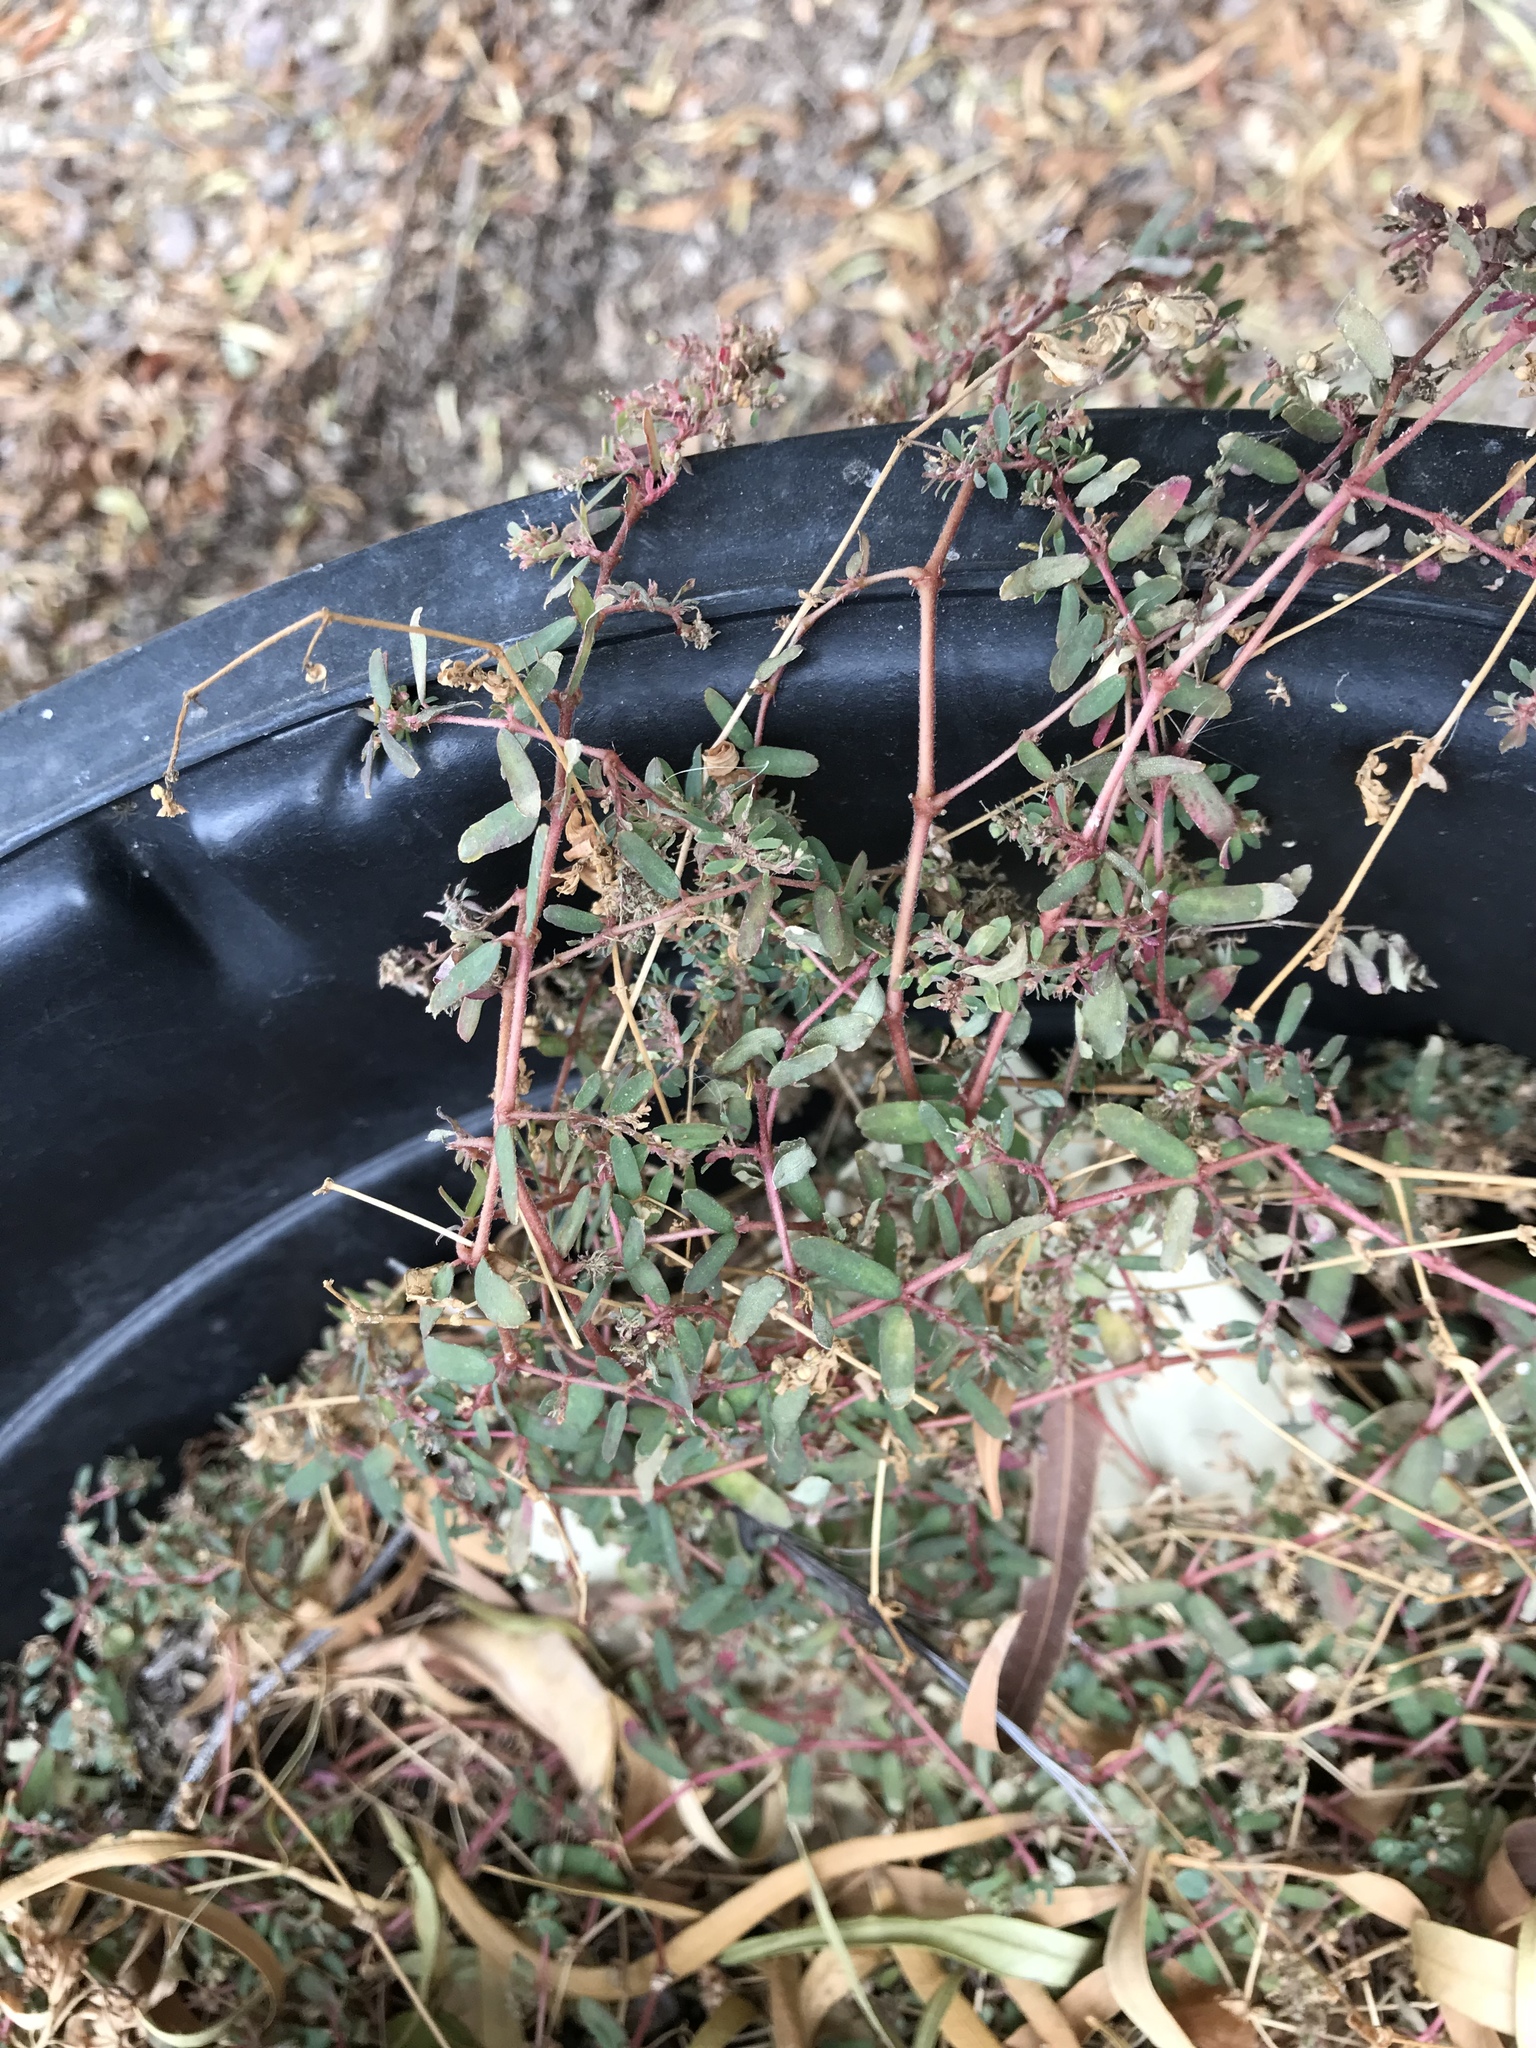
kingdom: Plantae
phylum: Tracheophyta
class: Magnoliopsida
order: Malpighiales
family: Euphorbiaceae
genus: Euphorbia
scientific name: Euphorbia maculata
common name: Spotted spurge
